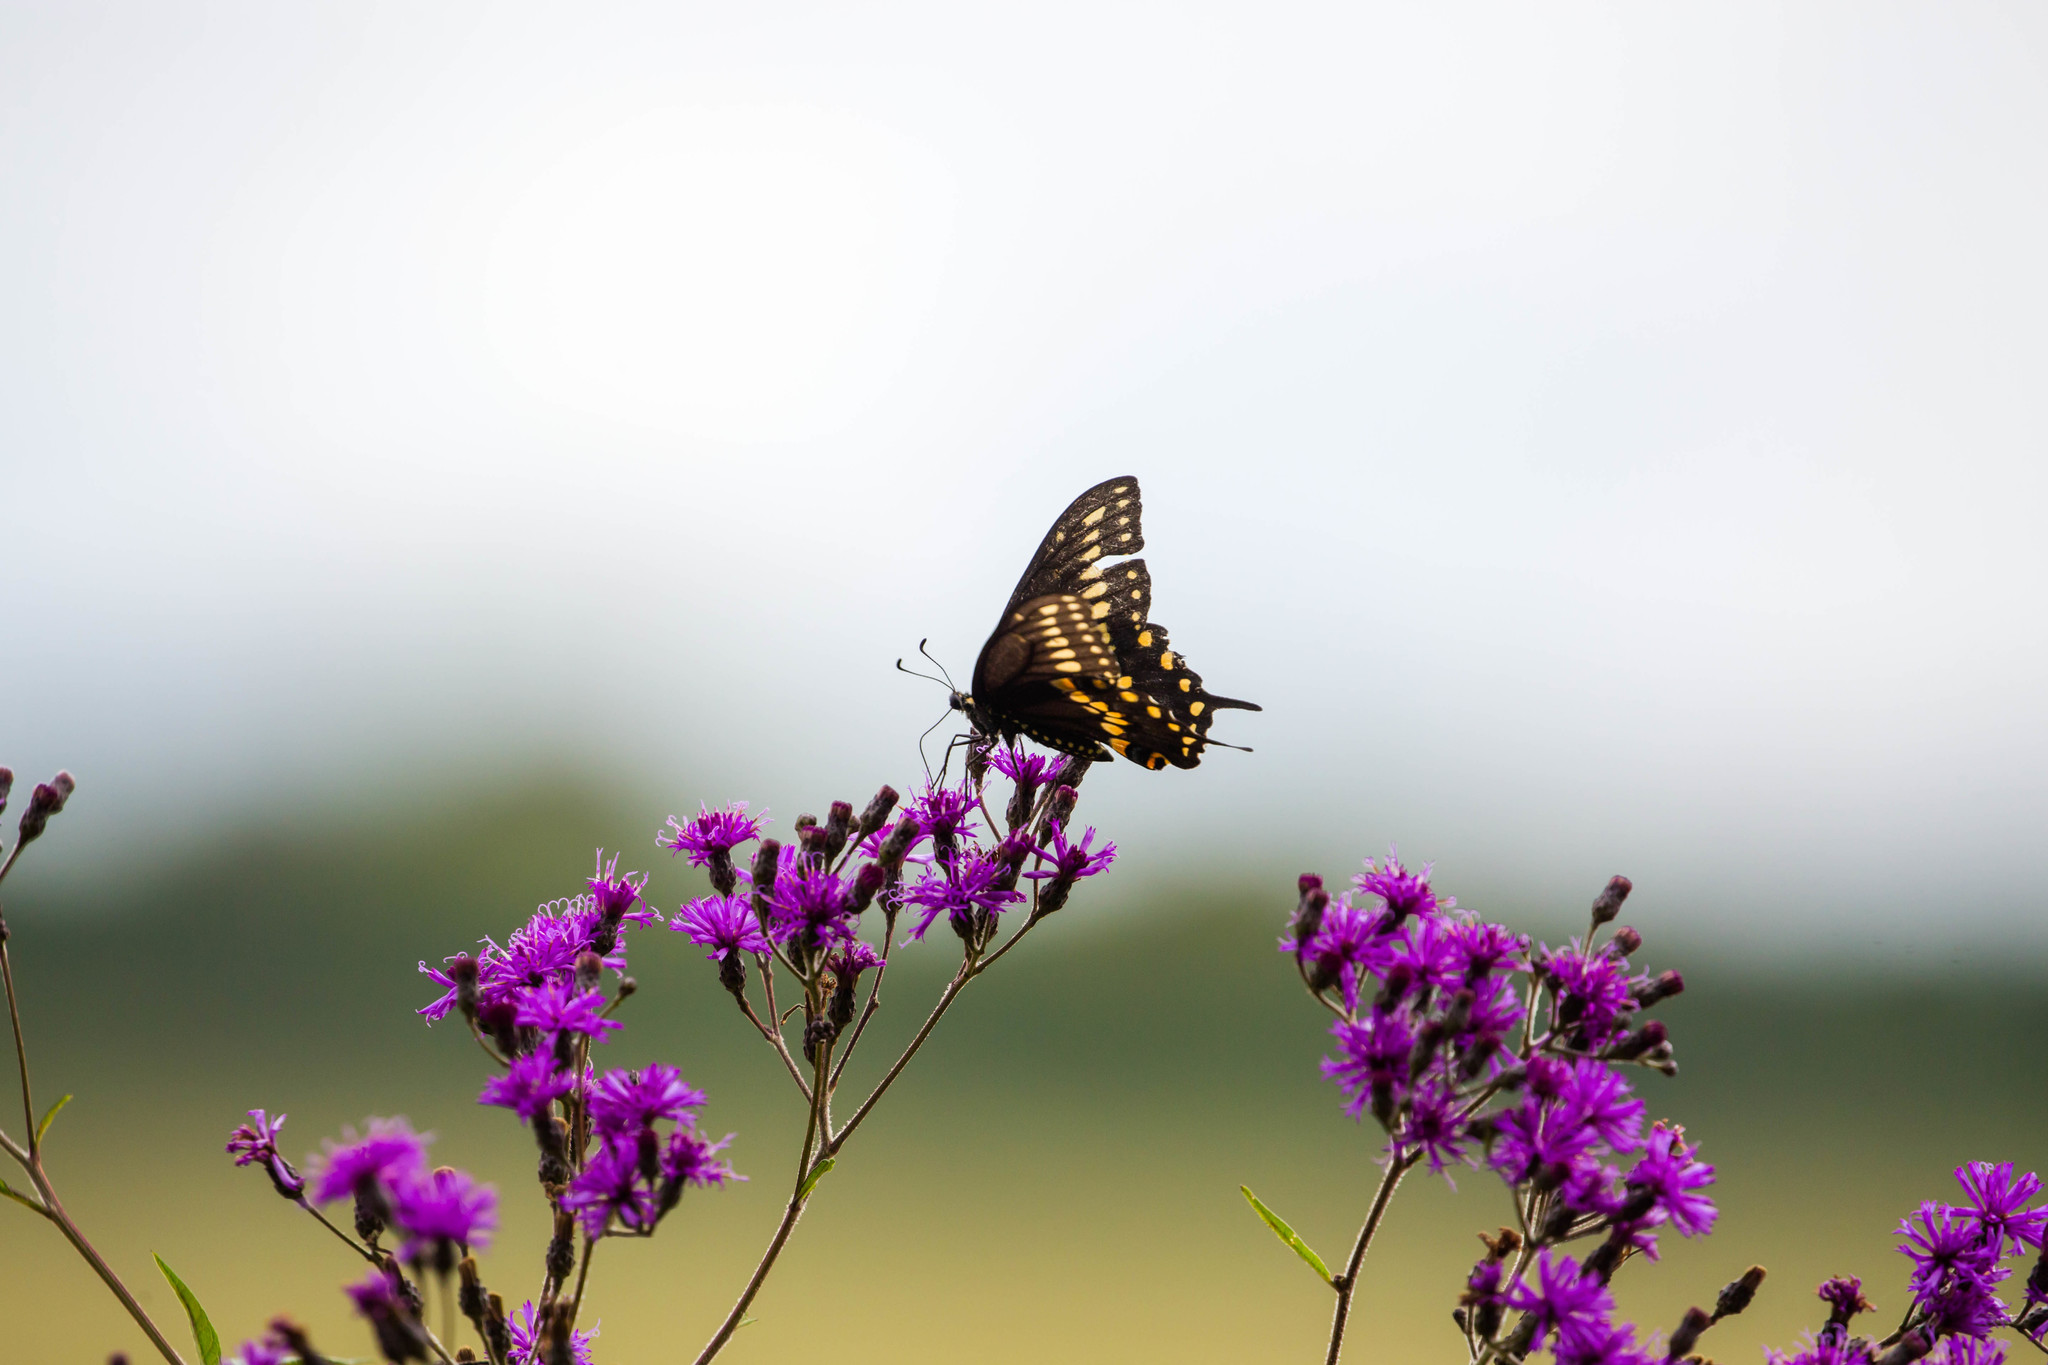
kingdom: Animalia
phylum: Arthropoda
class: Insecta
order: Lepidoptera
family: Papilionidae
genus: Papilio
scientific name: Papilio polyxenes
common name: Black swallowtail
